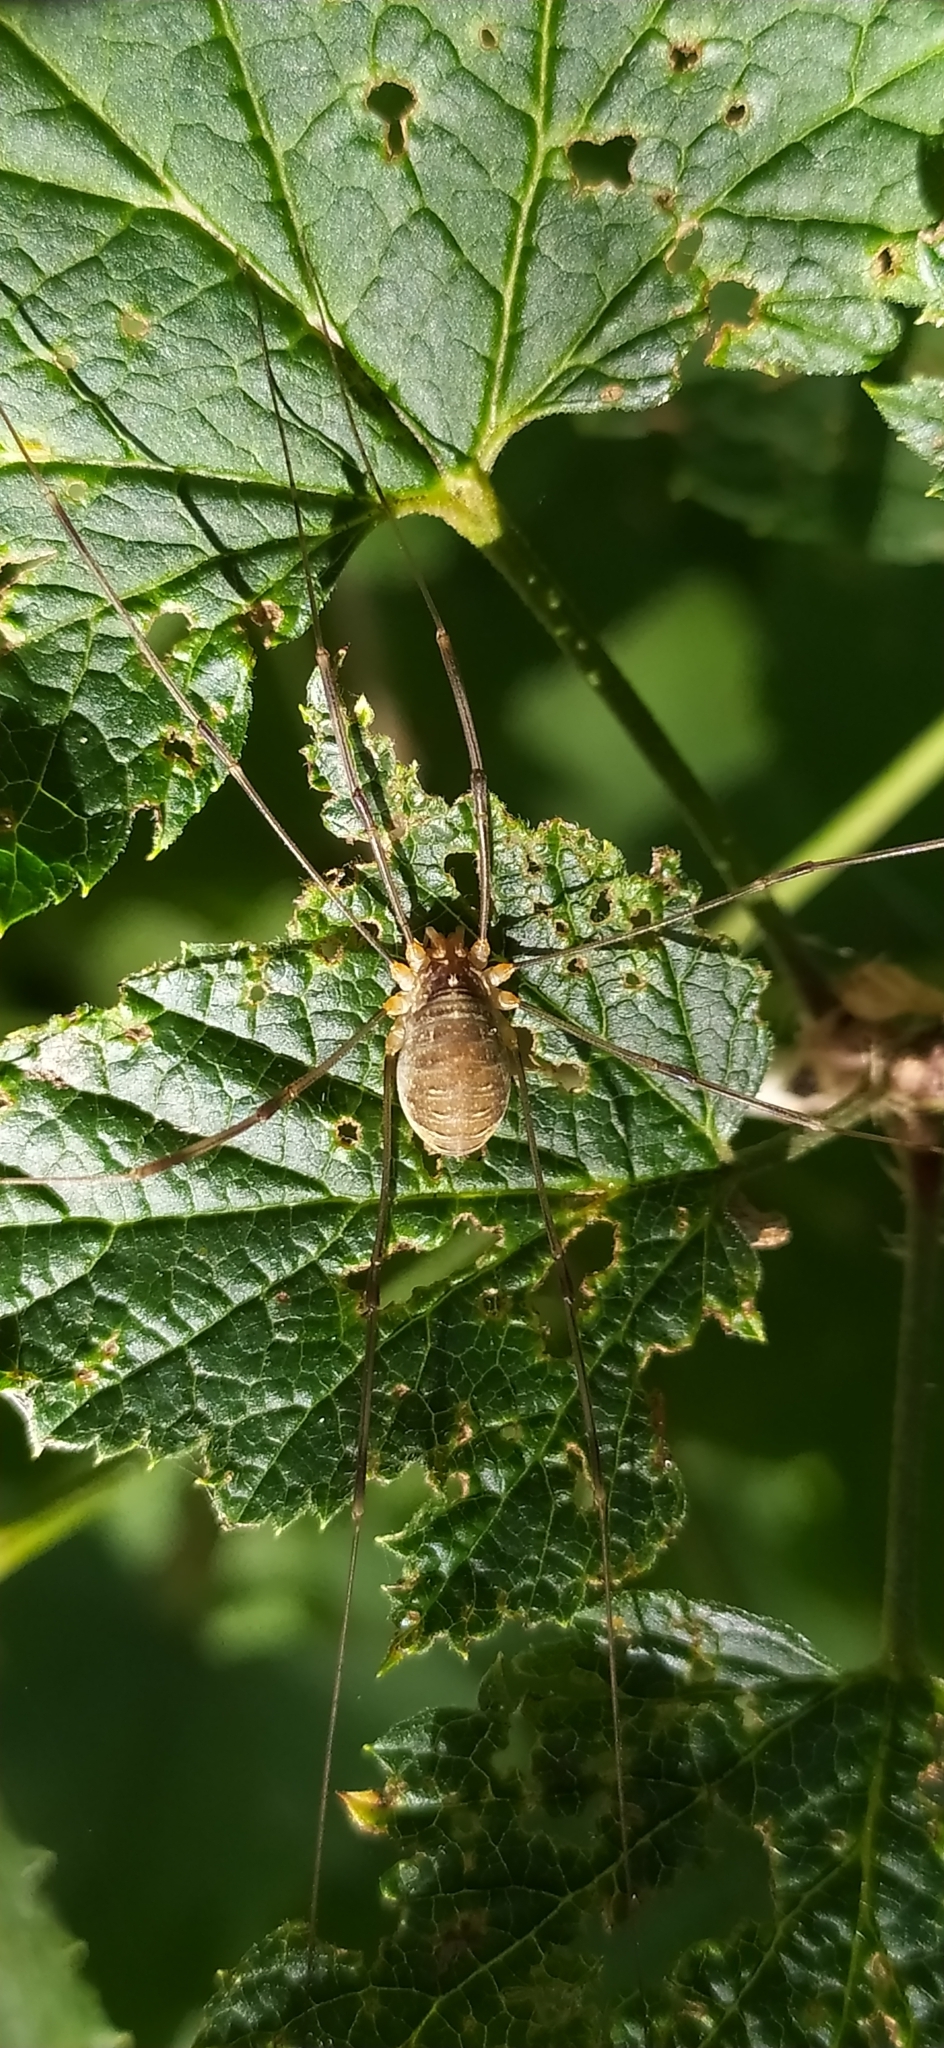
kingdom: Animalia
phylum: Arthropoda
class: Arachnida
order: Opiliones
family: Phalangiidae
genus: Opilio
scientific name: Opilio canestrinii
